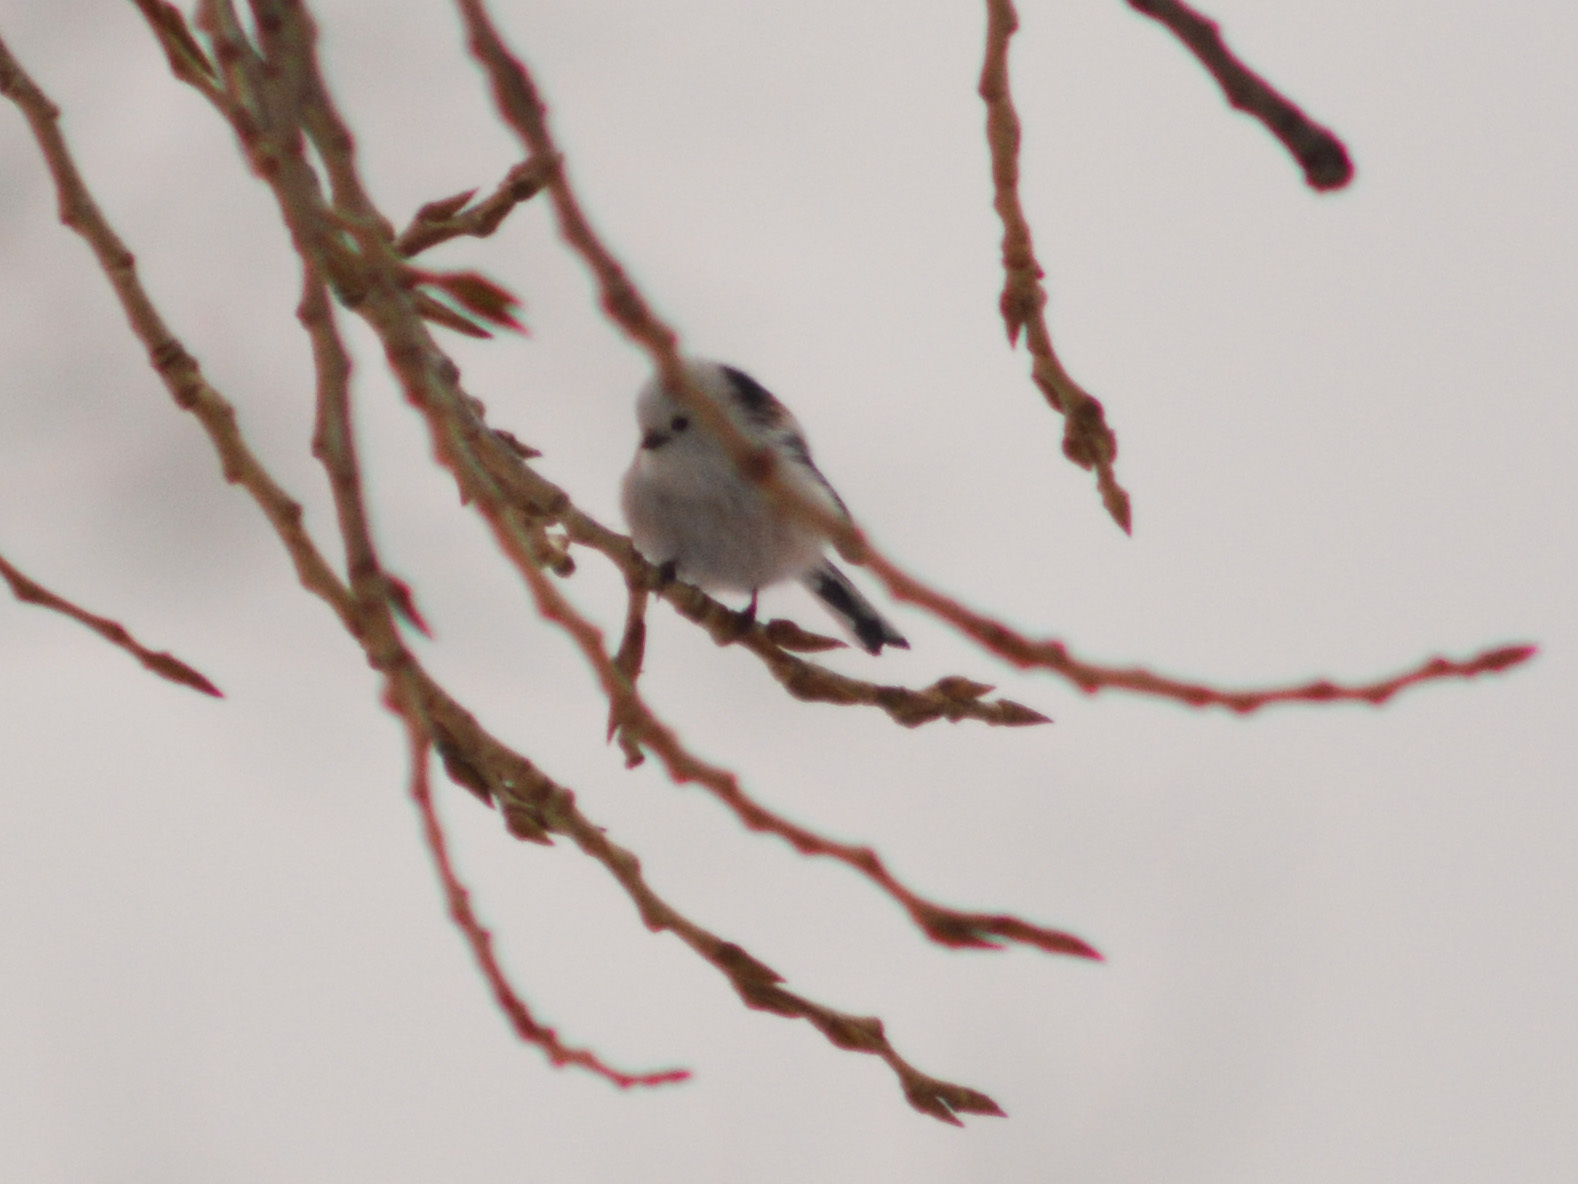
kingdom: Animalia
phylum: Chordata
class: Aves
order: Passeriformes
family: Aegithalidae
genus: Aegithalos
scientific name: Aegithalos caudatus
